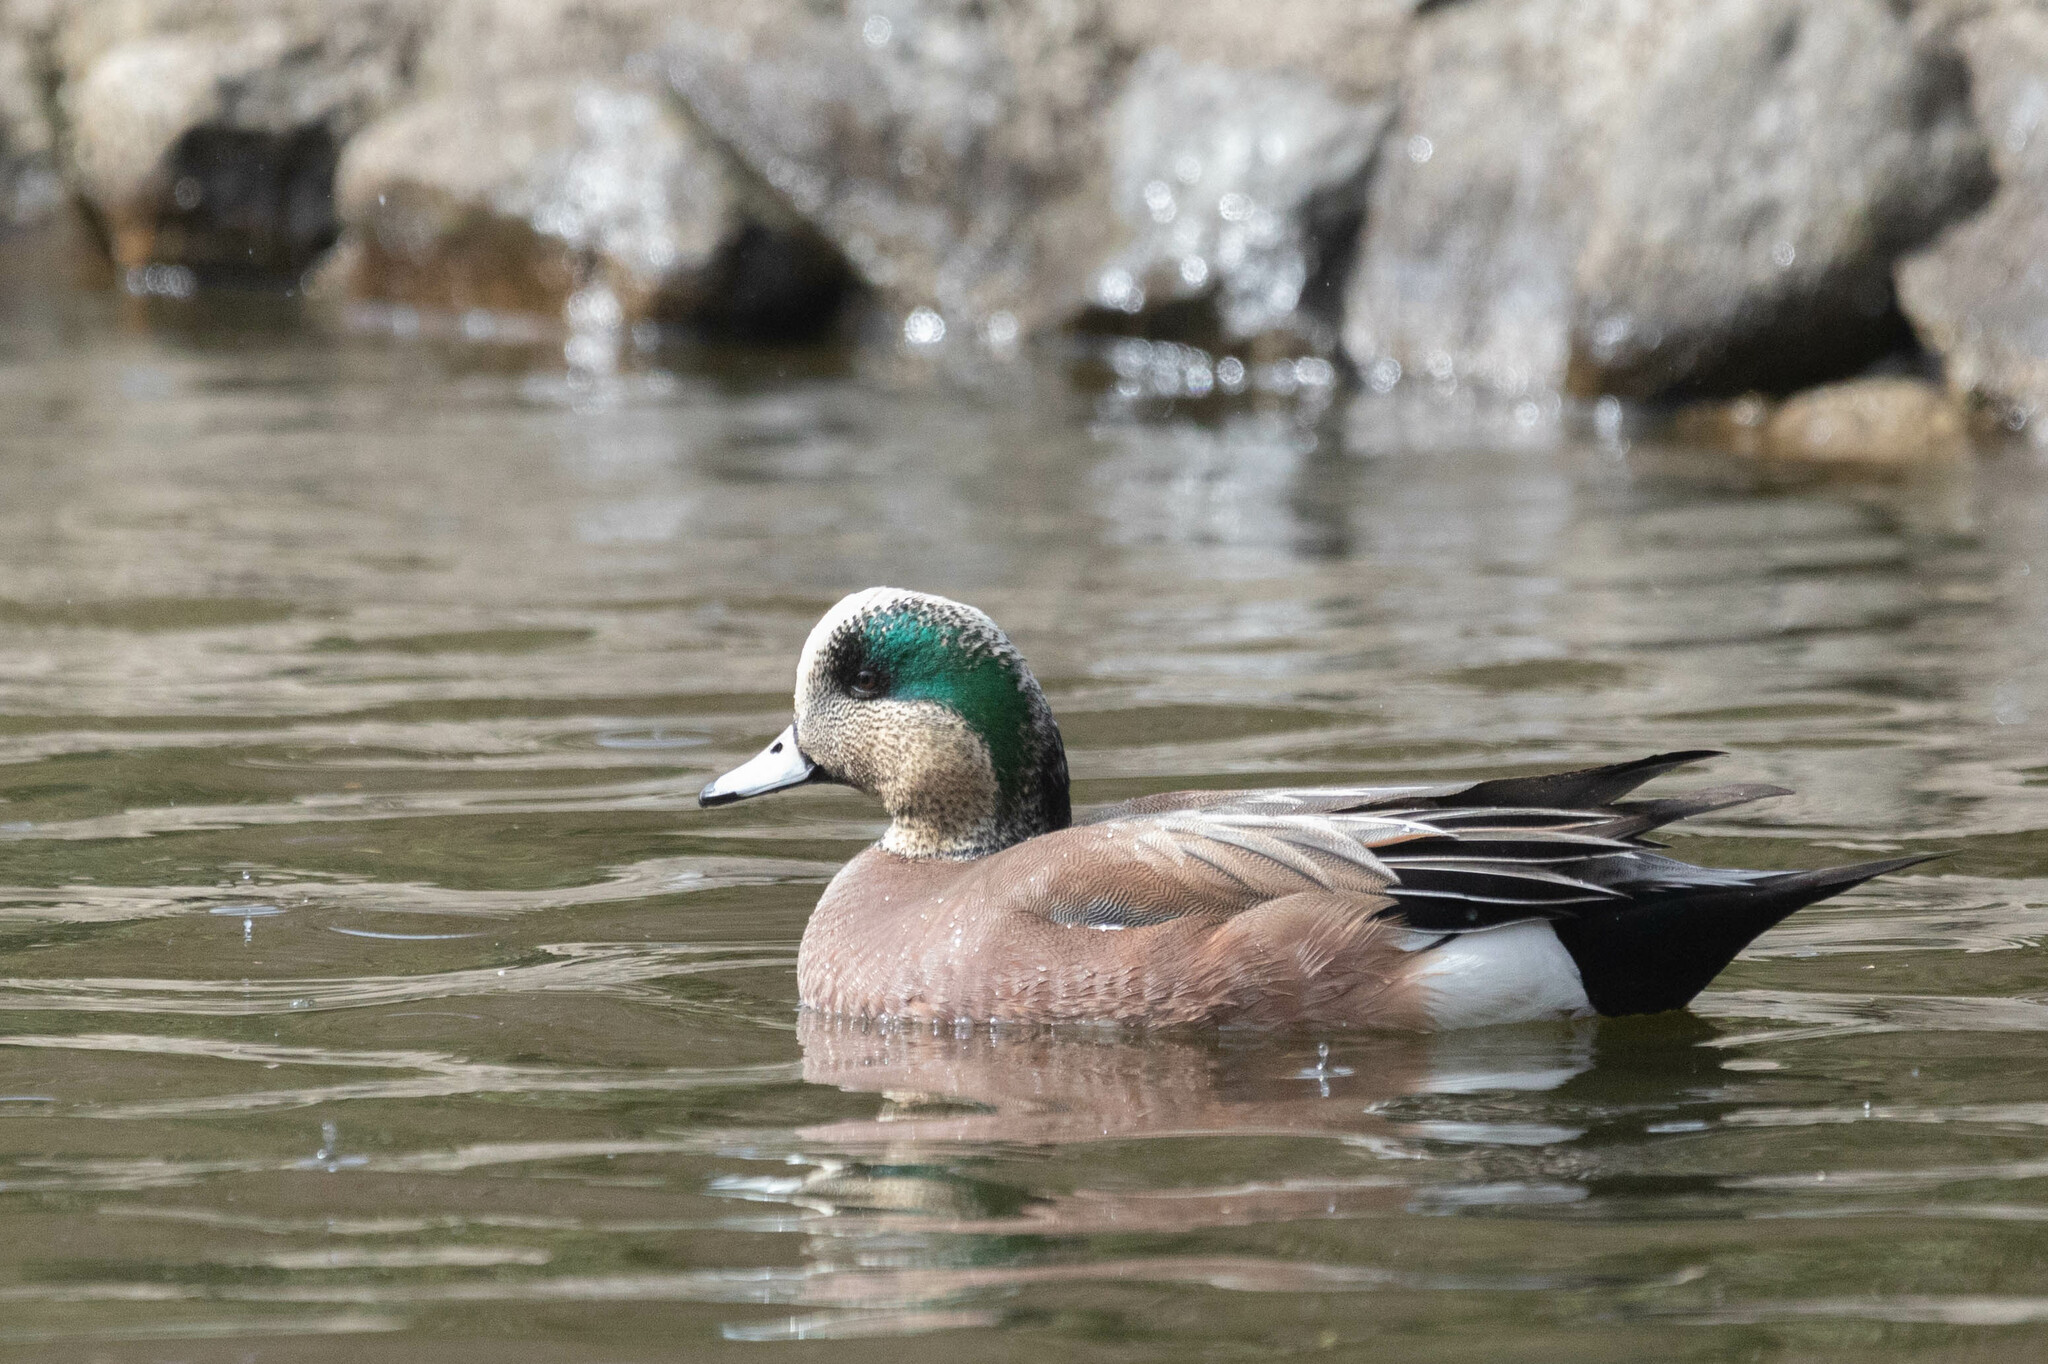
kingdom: Animalia
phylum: Chordata
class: Aves
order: Anseriformes
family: Anatidae
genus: Mareca
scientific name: Mareca americana
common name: American wigeon
